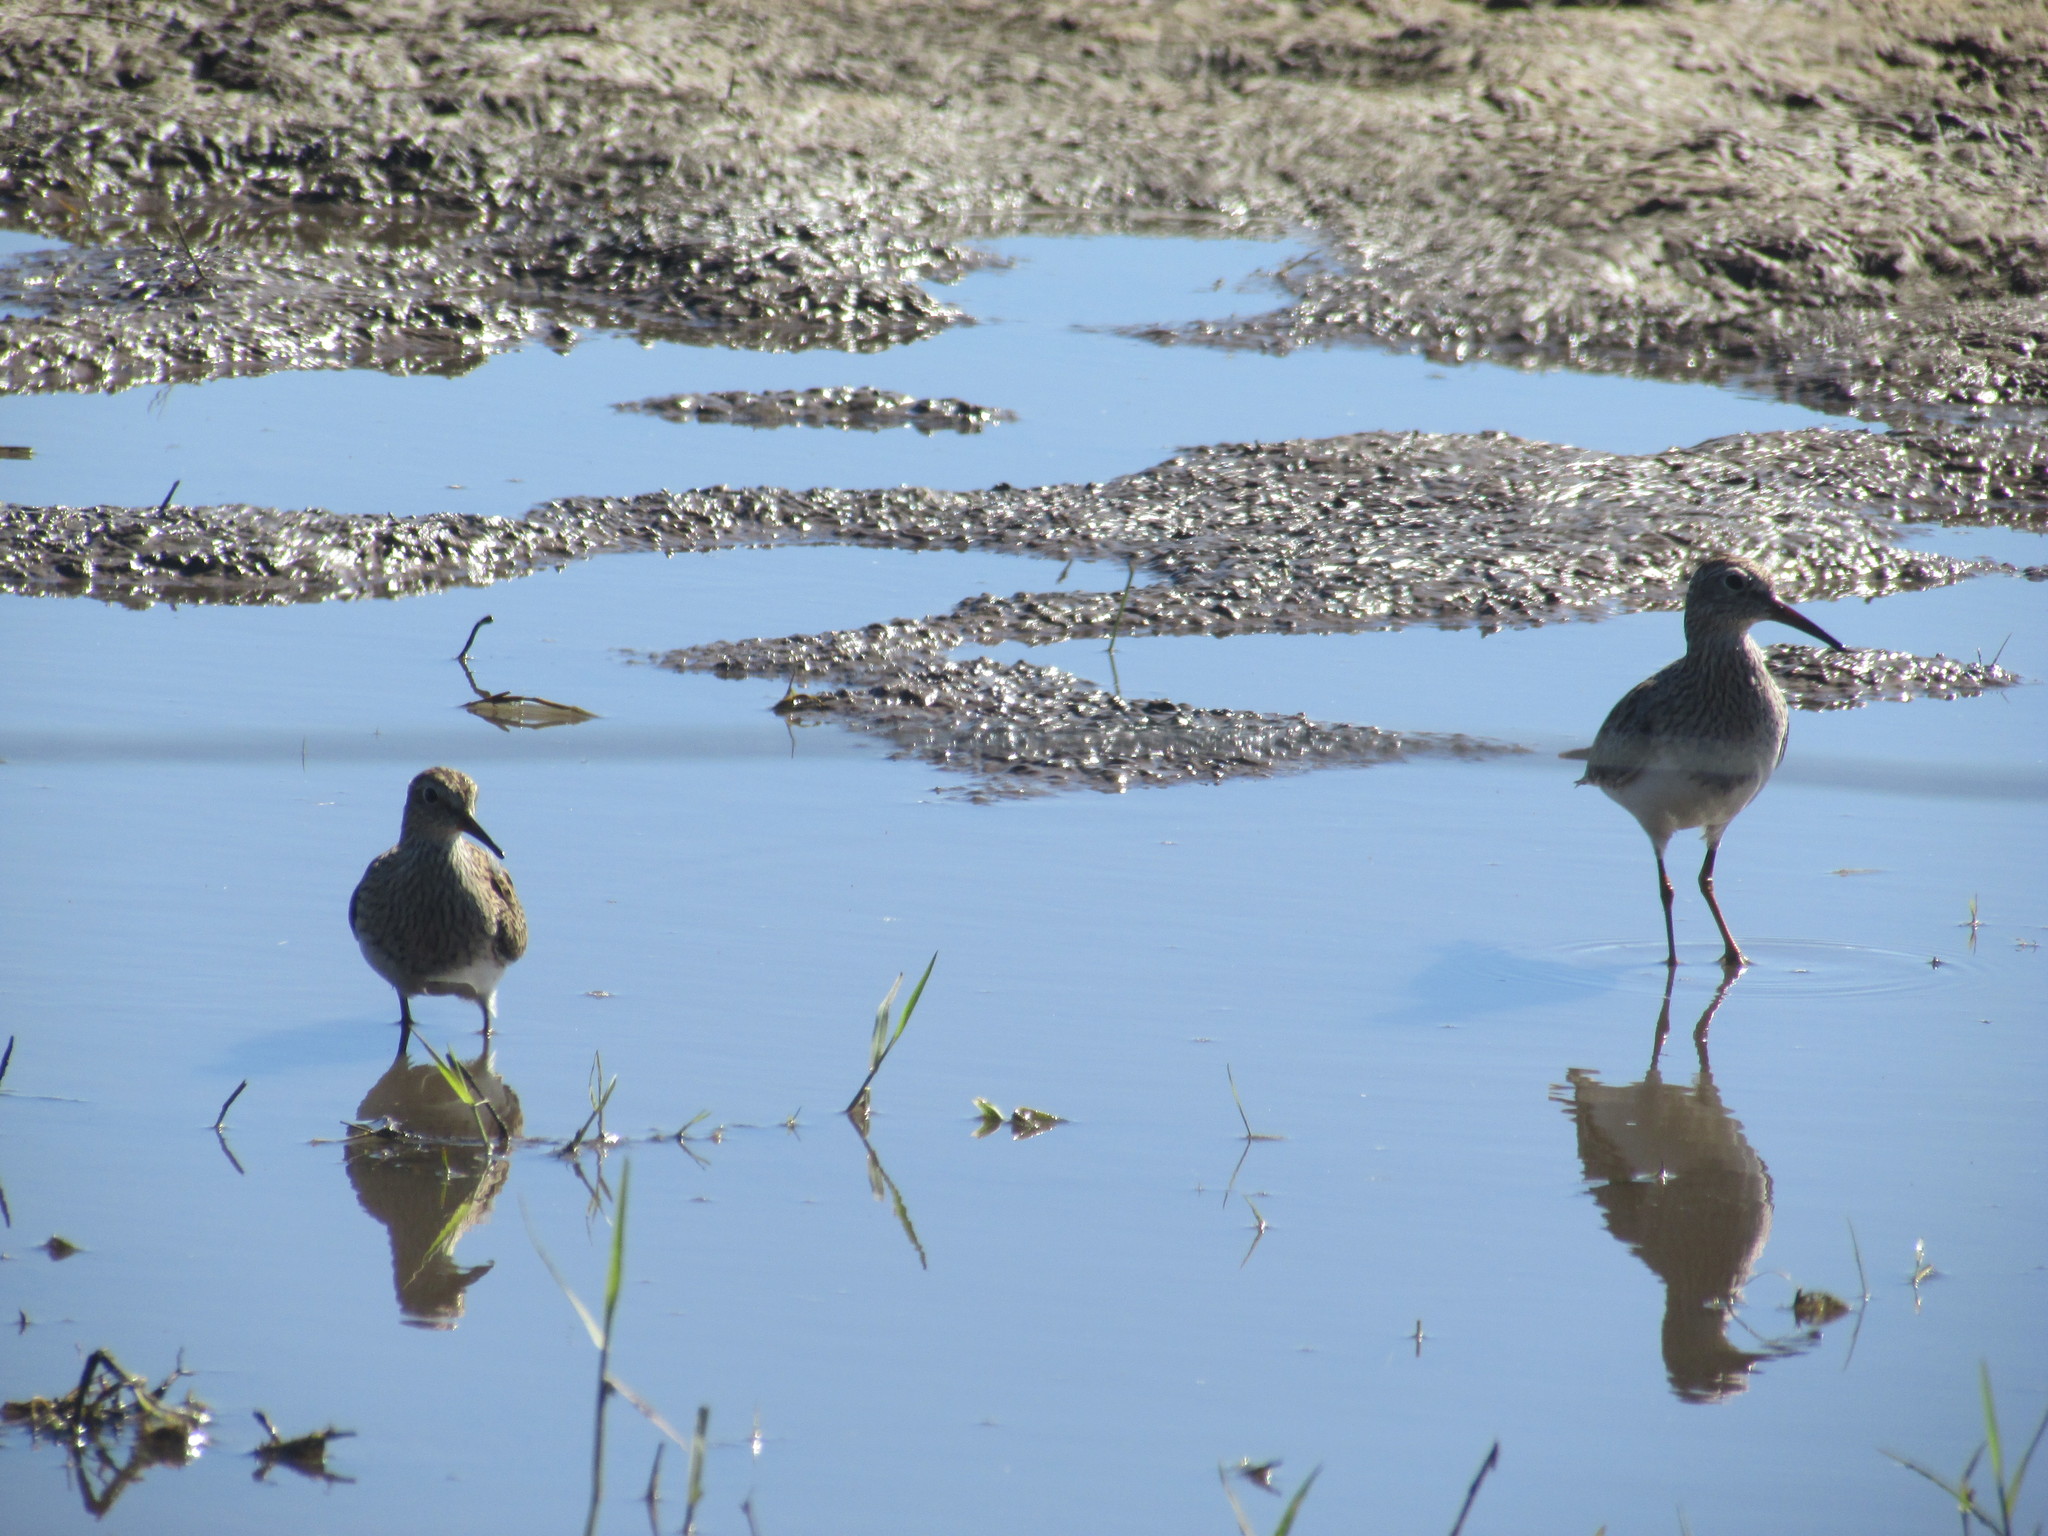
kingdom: Animalia
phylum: Chordata
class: Aves
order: Charadriiformes
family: Scolopacidae
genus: Tringa
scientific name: Tringa melanoleuca
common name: Greater yellowlegs
